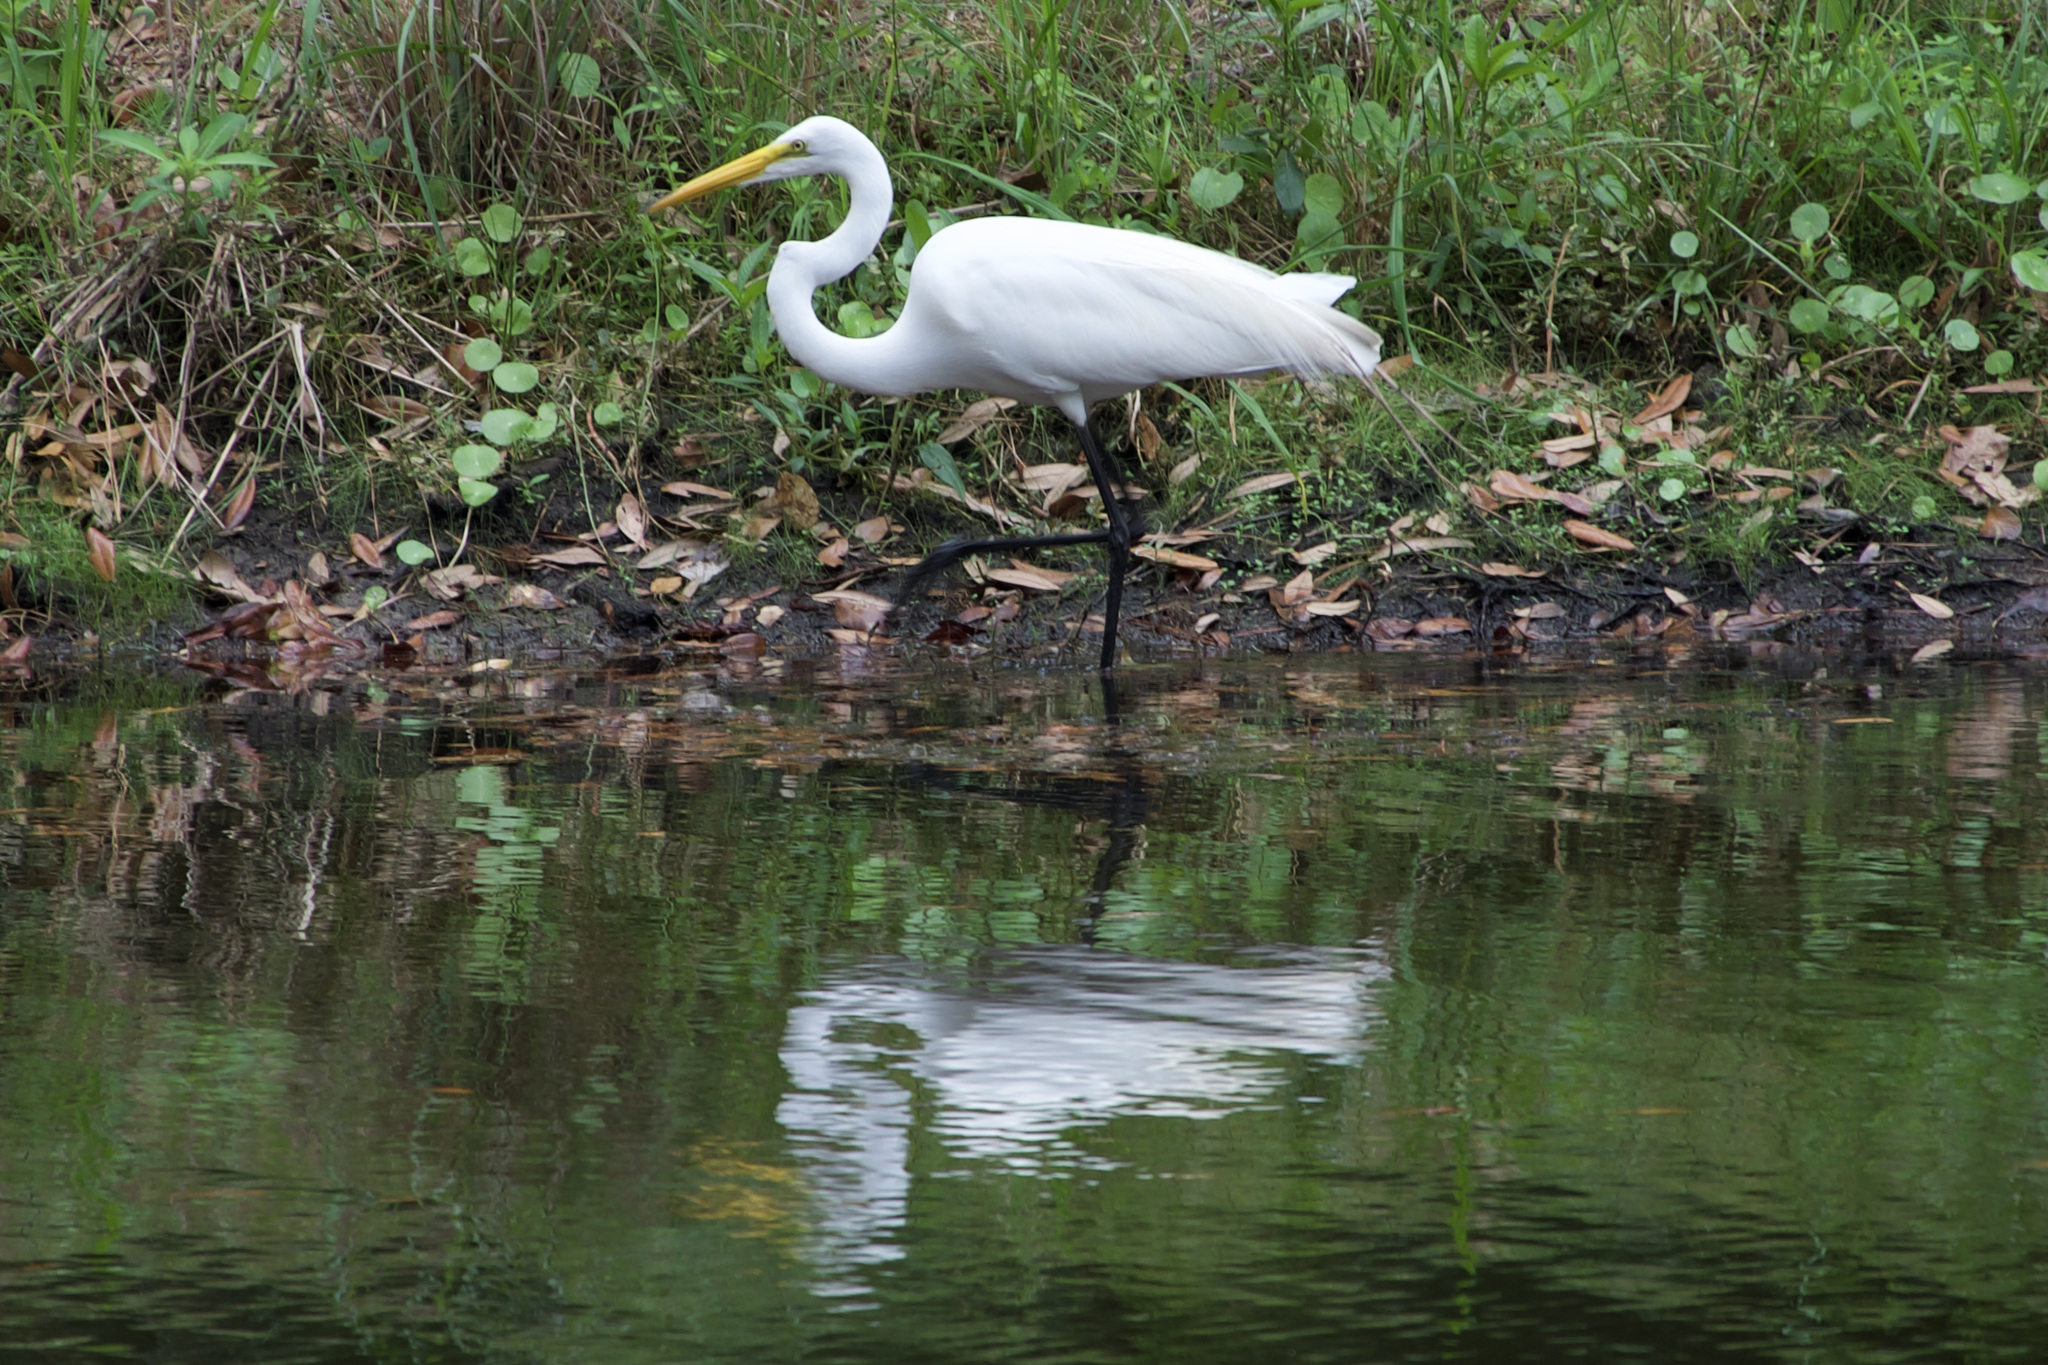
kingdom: Animalia
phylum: Chordata
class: Aves
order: Pelecaniformes
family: Ardeidae
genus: Ardea
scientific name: Ardea alba
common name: Great egret
